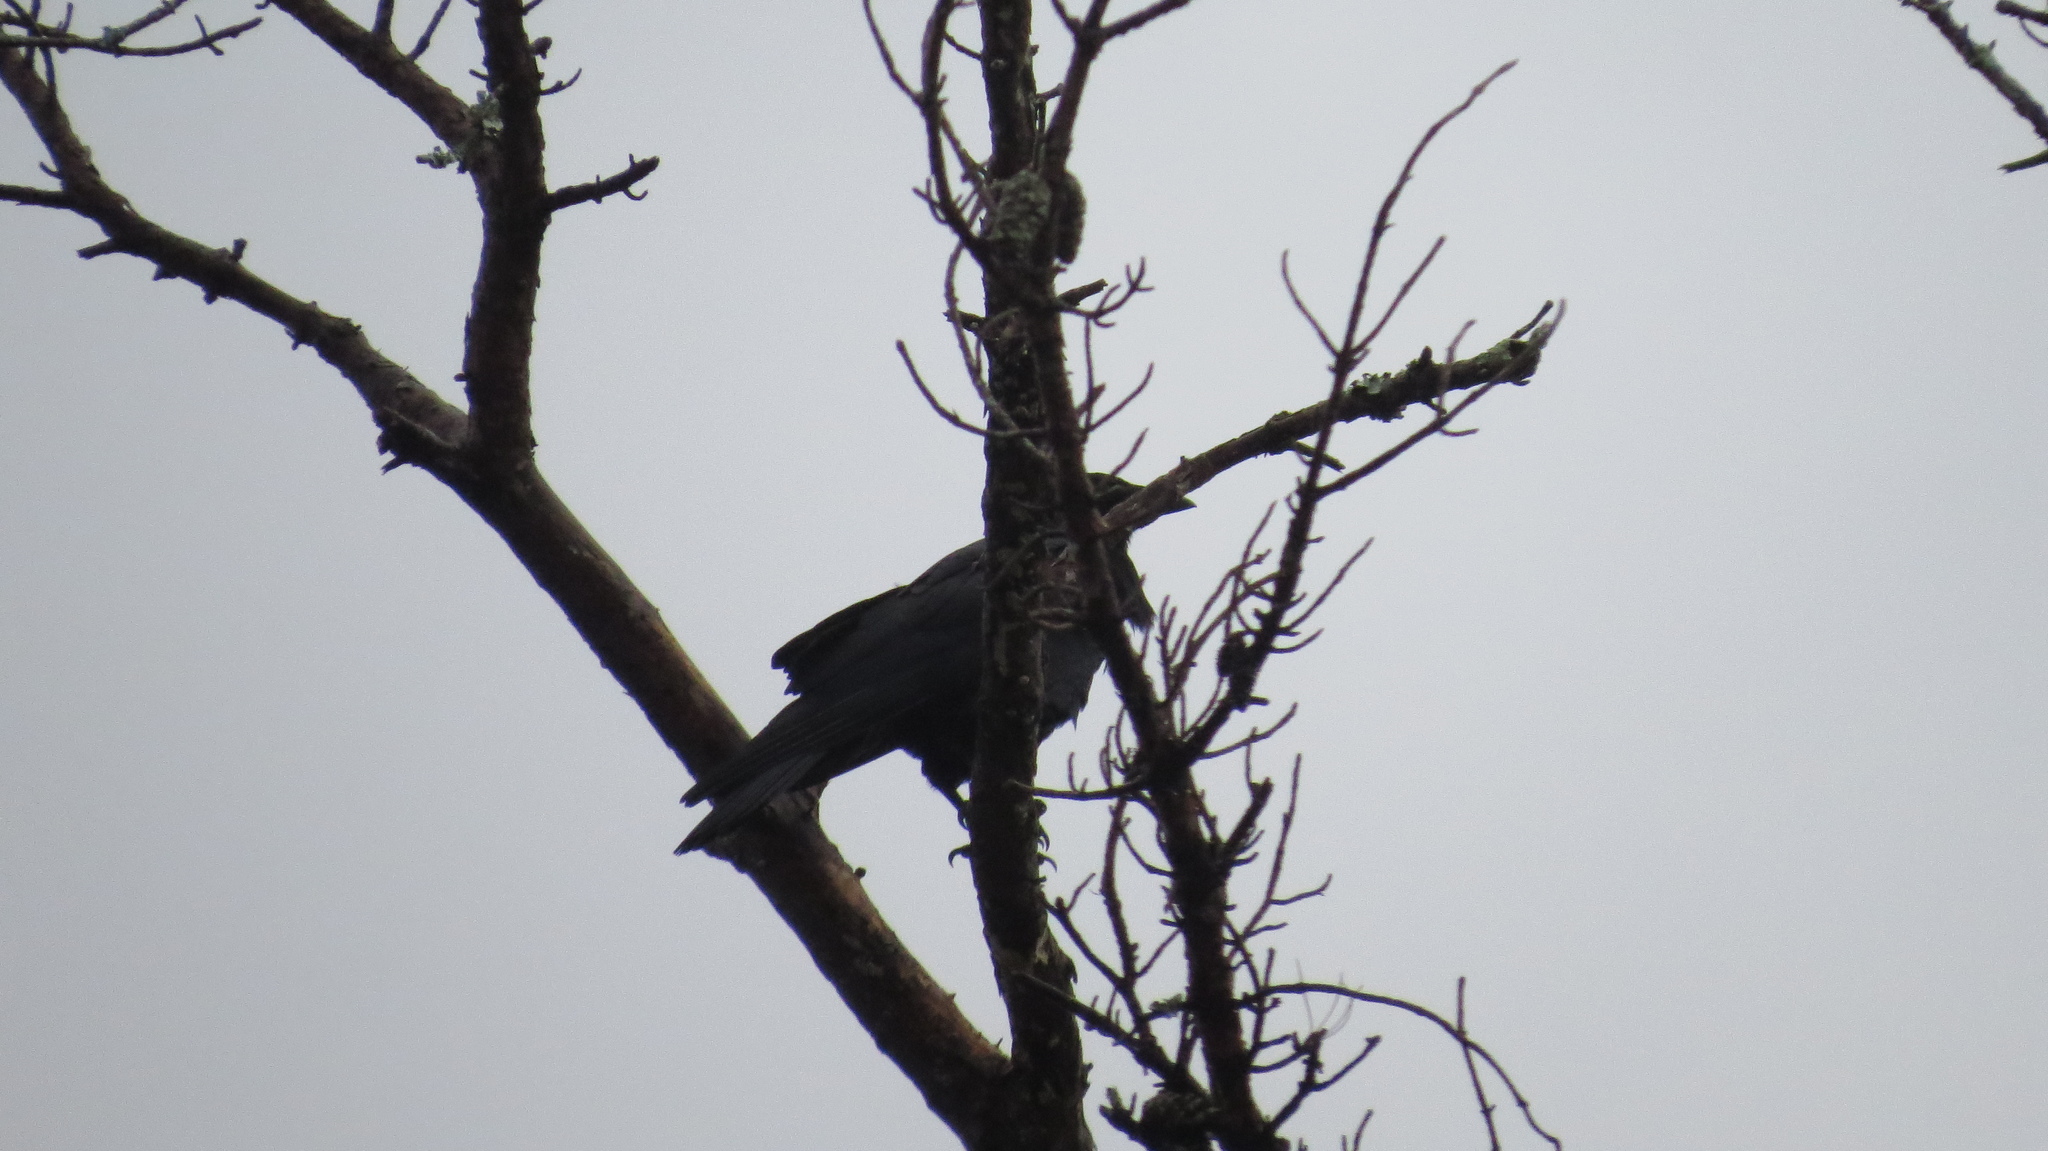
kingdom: Animalia
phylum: Chordata
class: Aves
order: Passeriformes
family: Corvidae
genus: Corvus
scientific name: Corvus brachyrhynchos
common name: American crow
